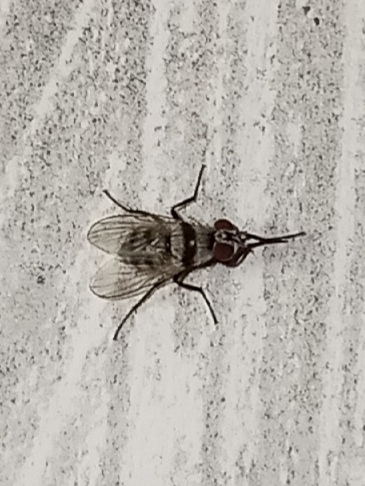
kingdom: Animalia
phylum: Arthropoda
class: Insecta
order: Diptera
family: Anthomyiidae
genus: Anthomyia
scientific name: Anthomyia illocata
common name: Fly
